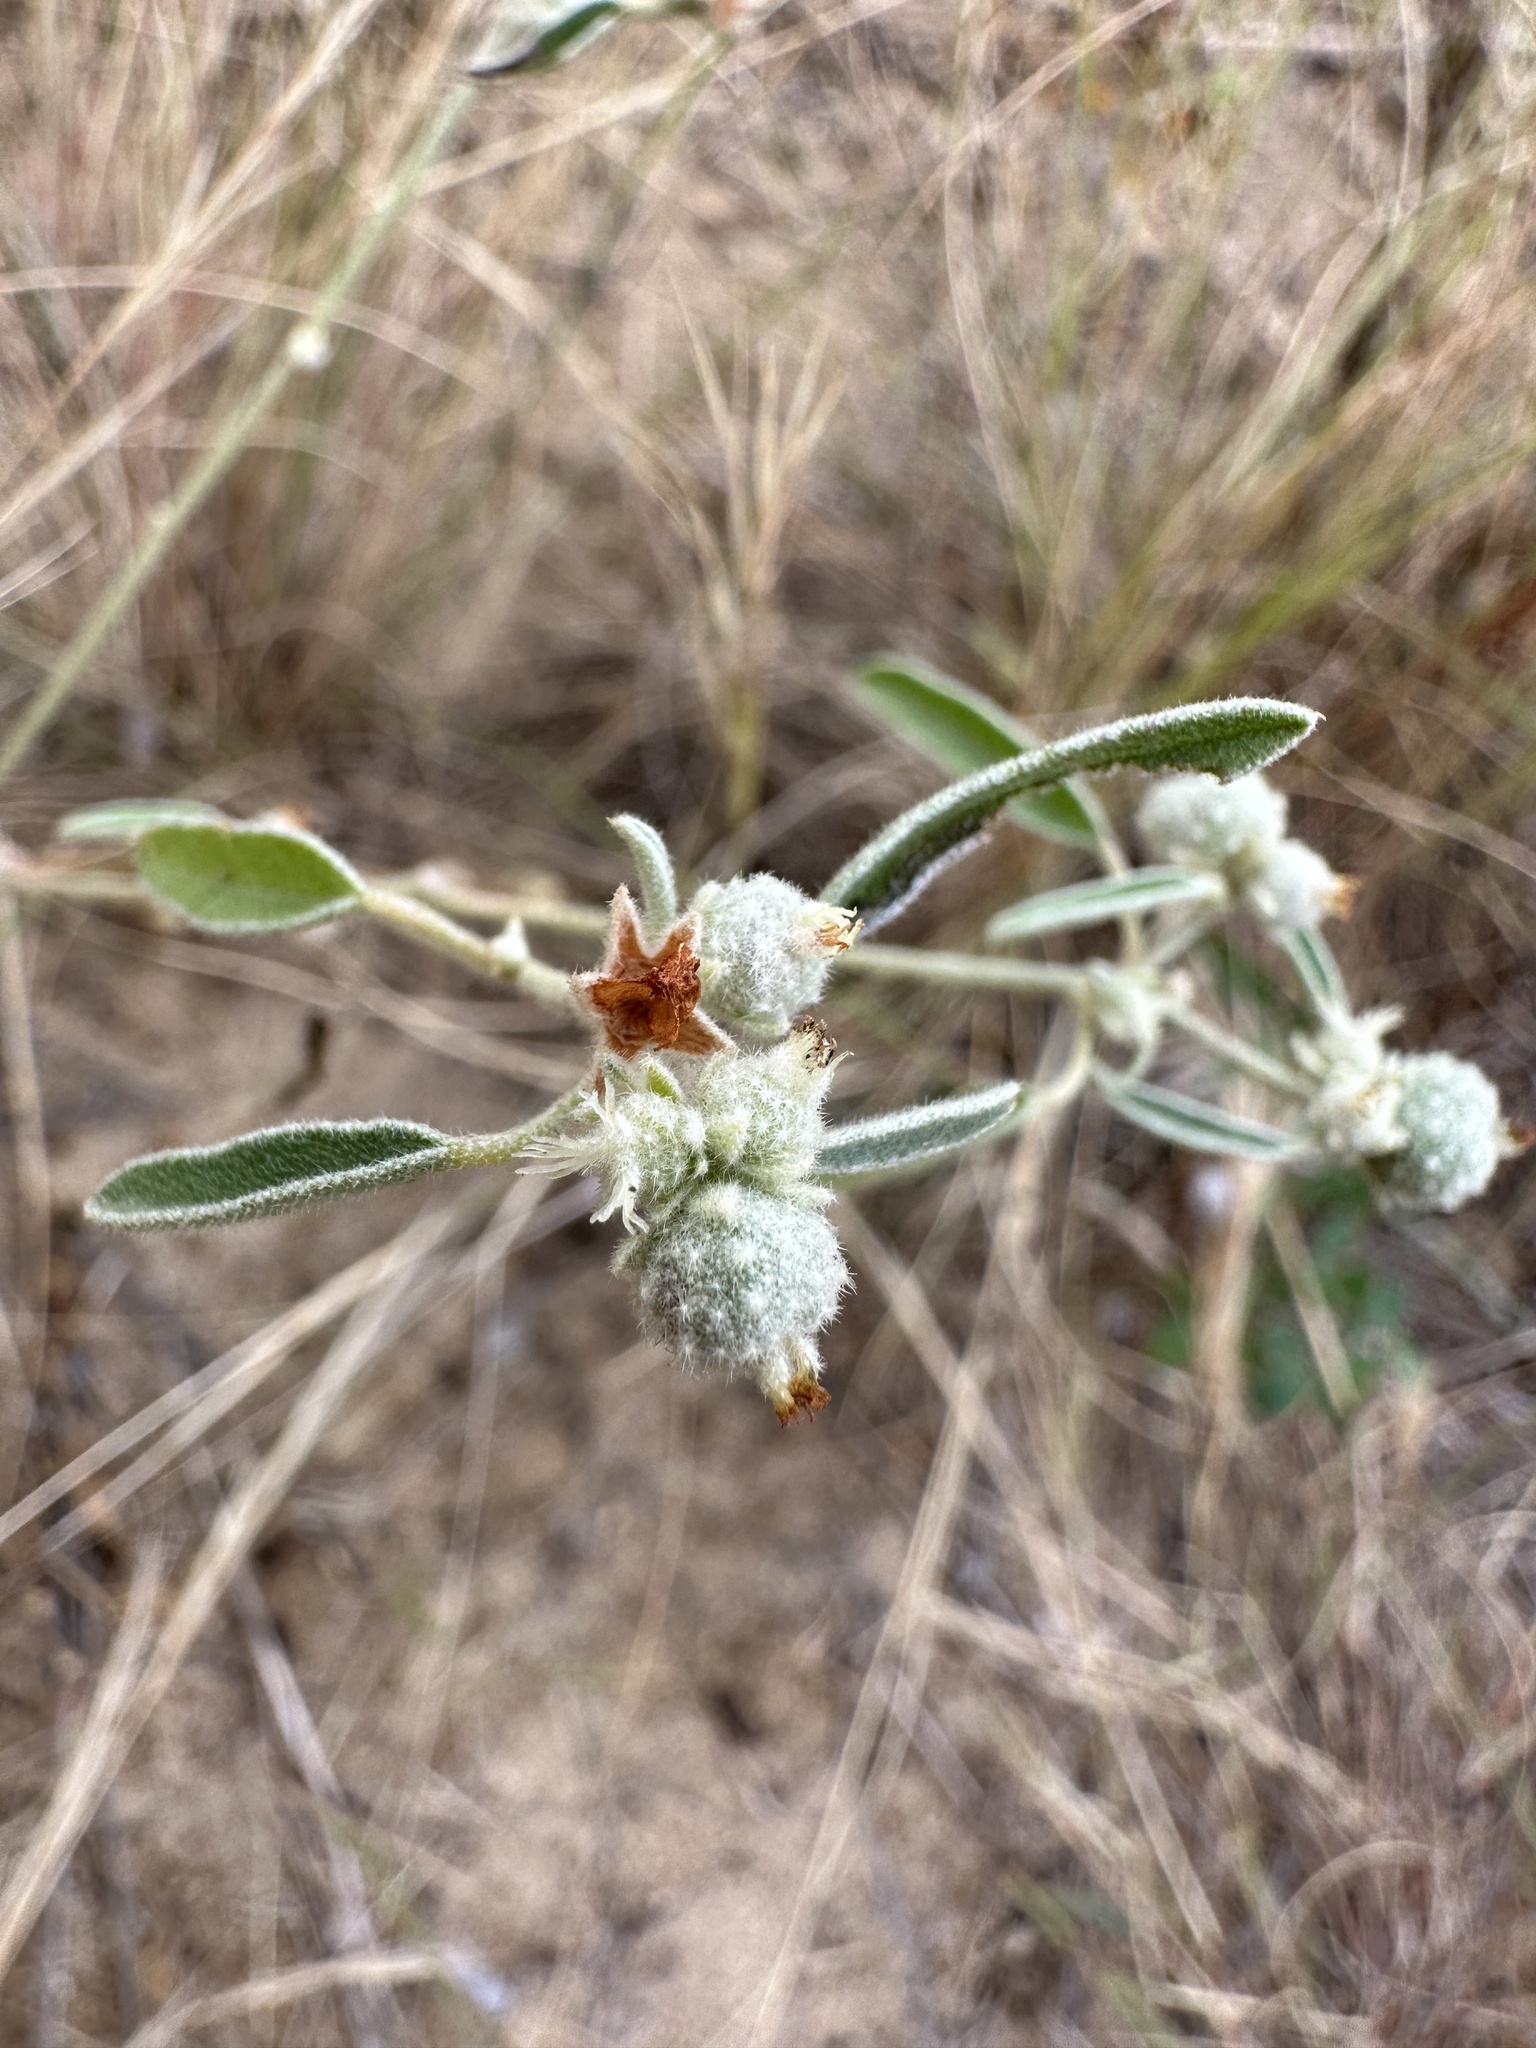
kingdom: Plantae
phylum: Tracheophyta
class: Magnoliopsida
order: Malpighiales
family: Euphorbiaceae
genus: Croton
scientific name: Croton texensis
